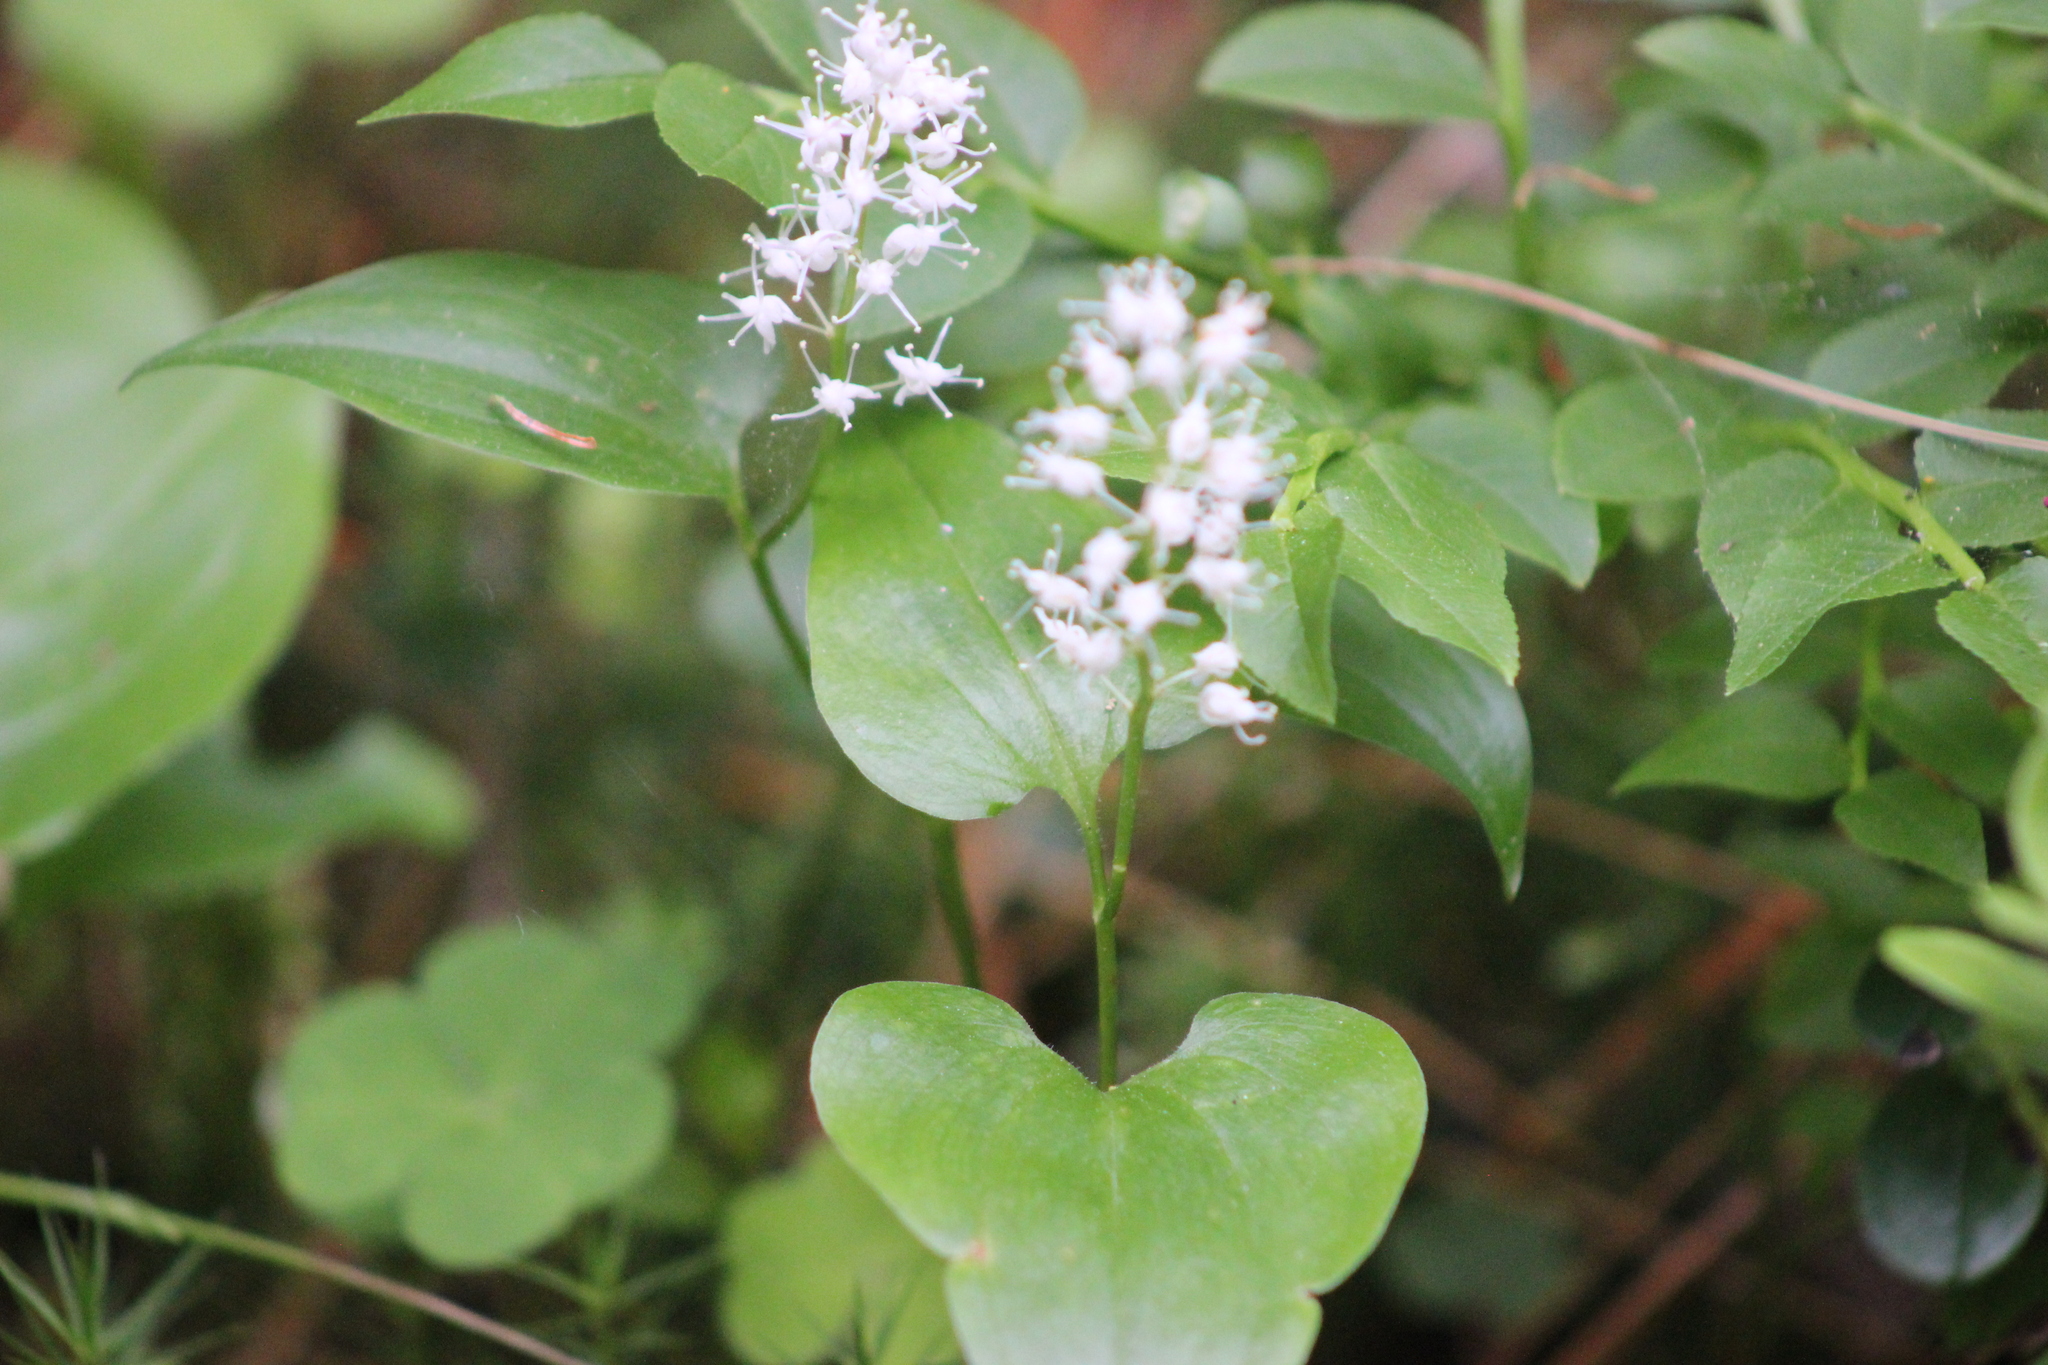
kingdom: Plantae
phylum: Tracheophyta
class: Liliopsida
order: Asparagales
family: Asparagaceae
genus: Maianthemum
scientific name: Maianthemum bifolium
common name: May lily
